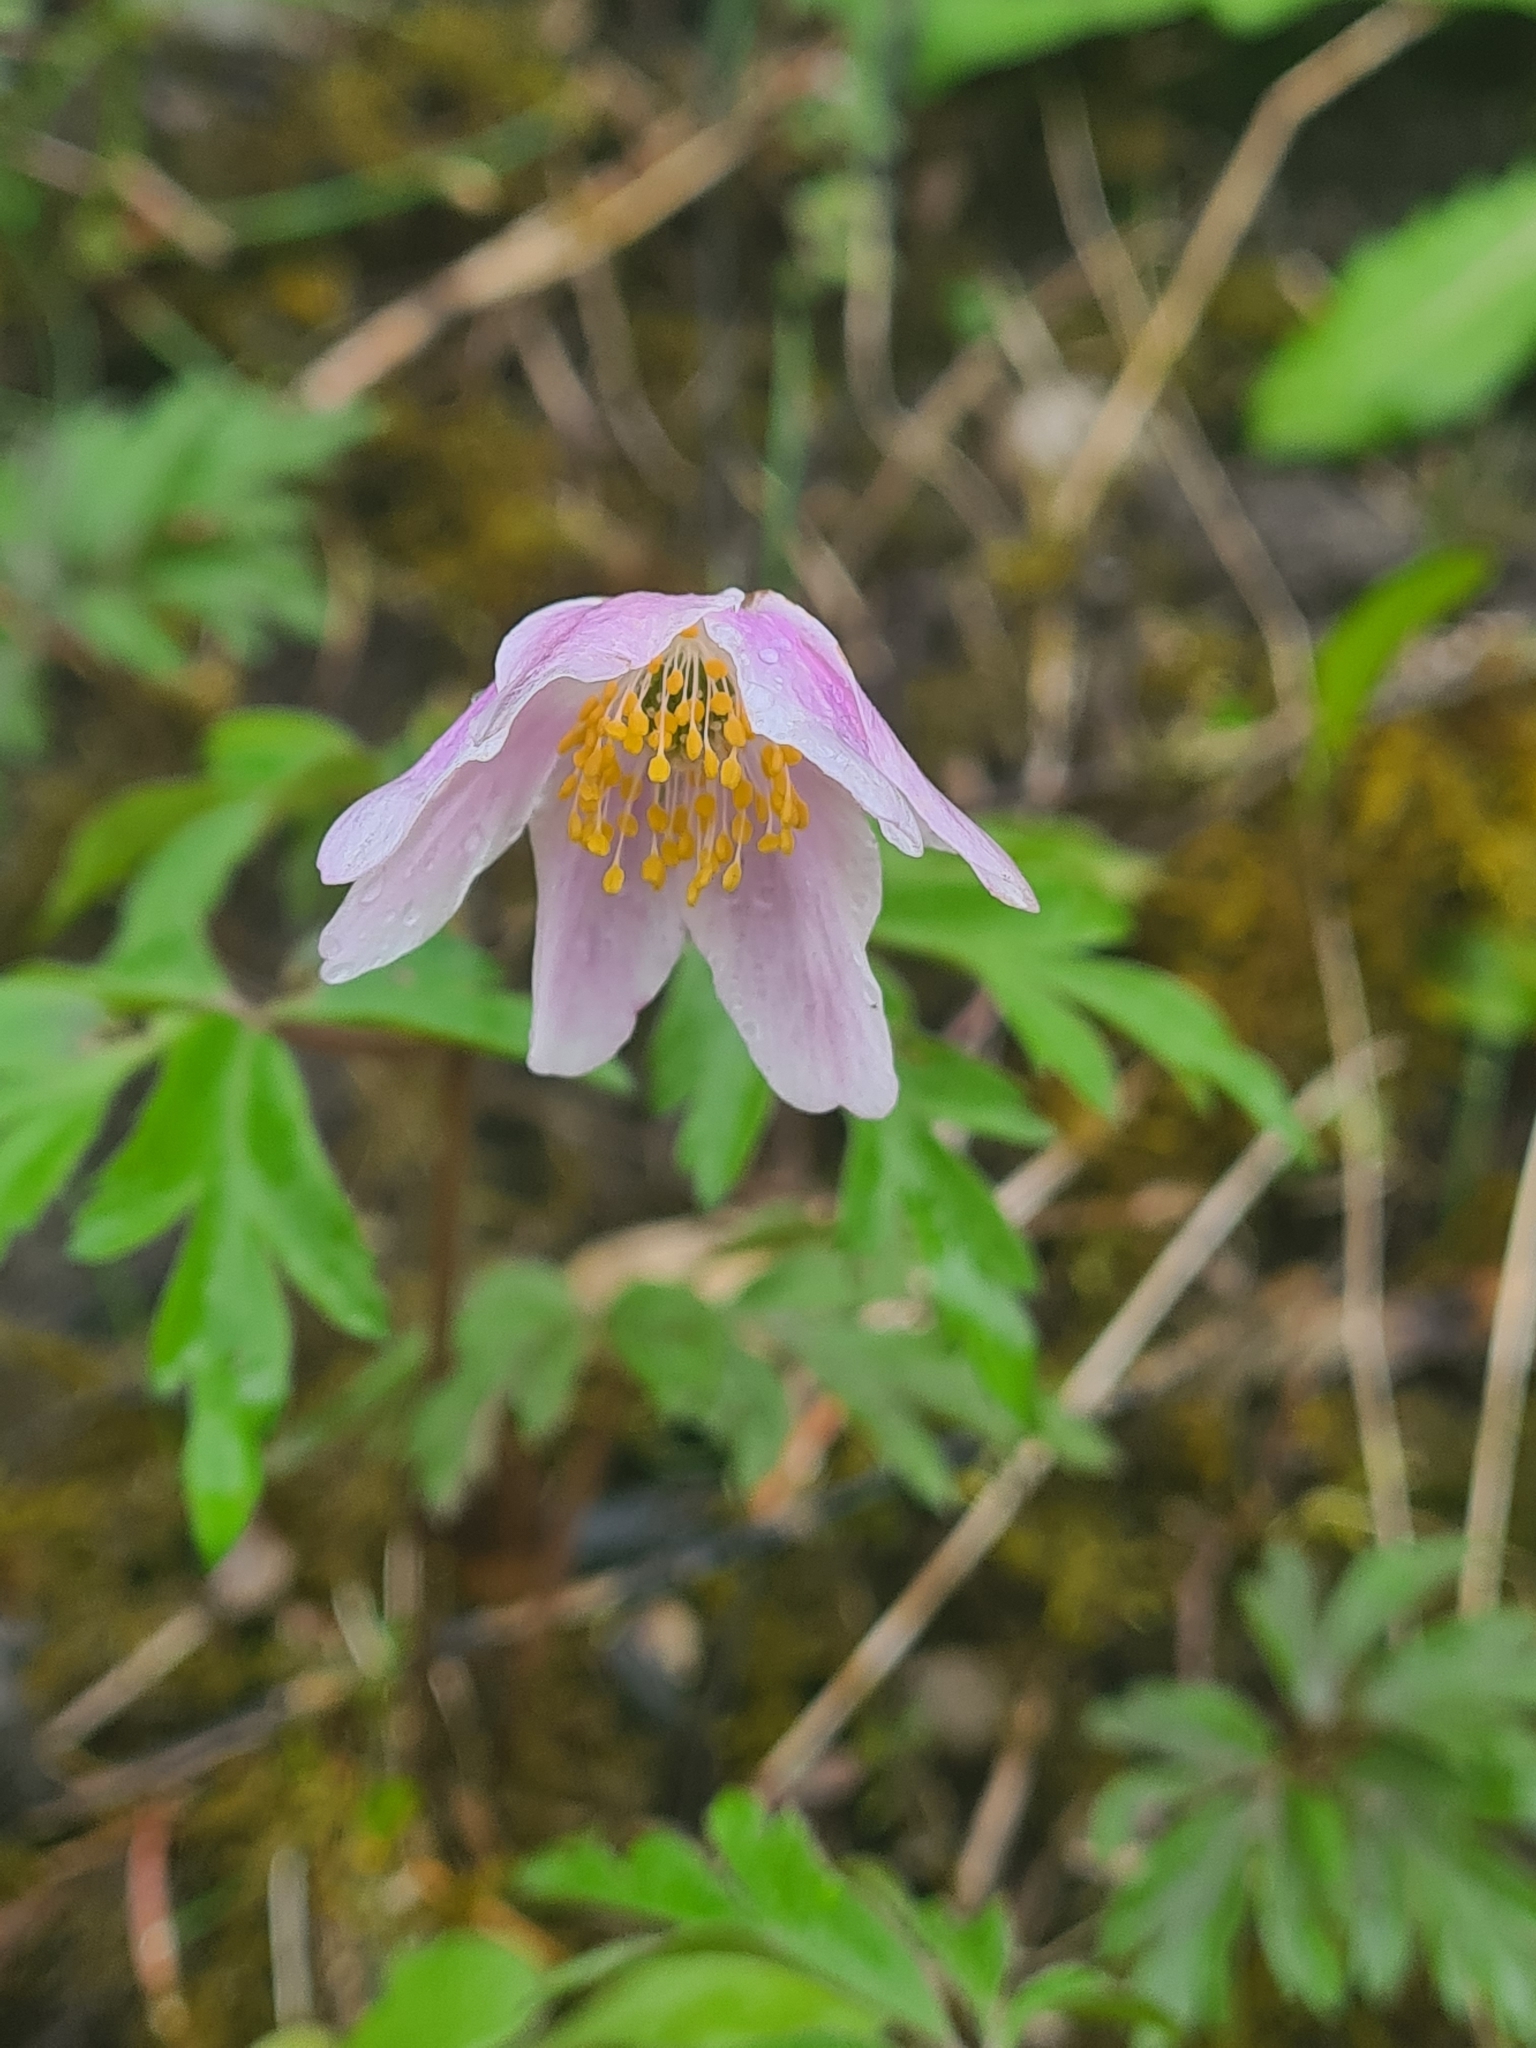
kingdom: Plantae
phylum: Tracheophyta
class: Magnoliopsida
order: Ranunculales
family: Ranunculaceae
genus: Anemone
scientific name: Anemone nemorosa
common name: Wood anemone
